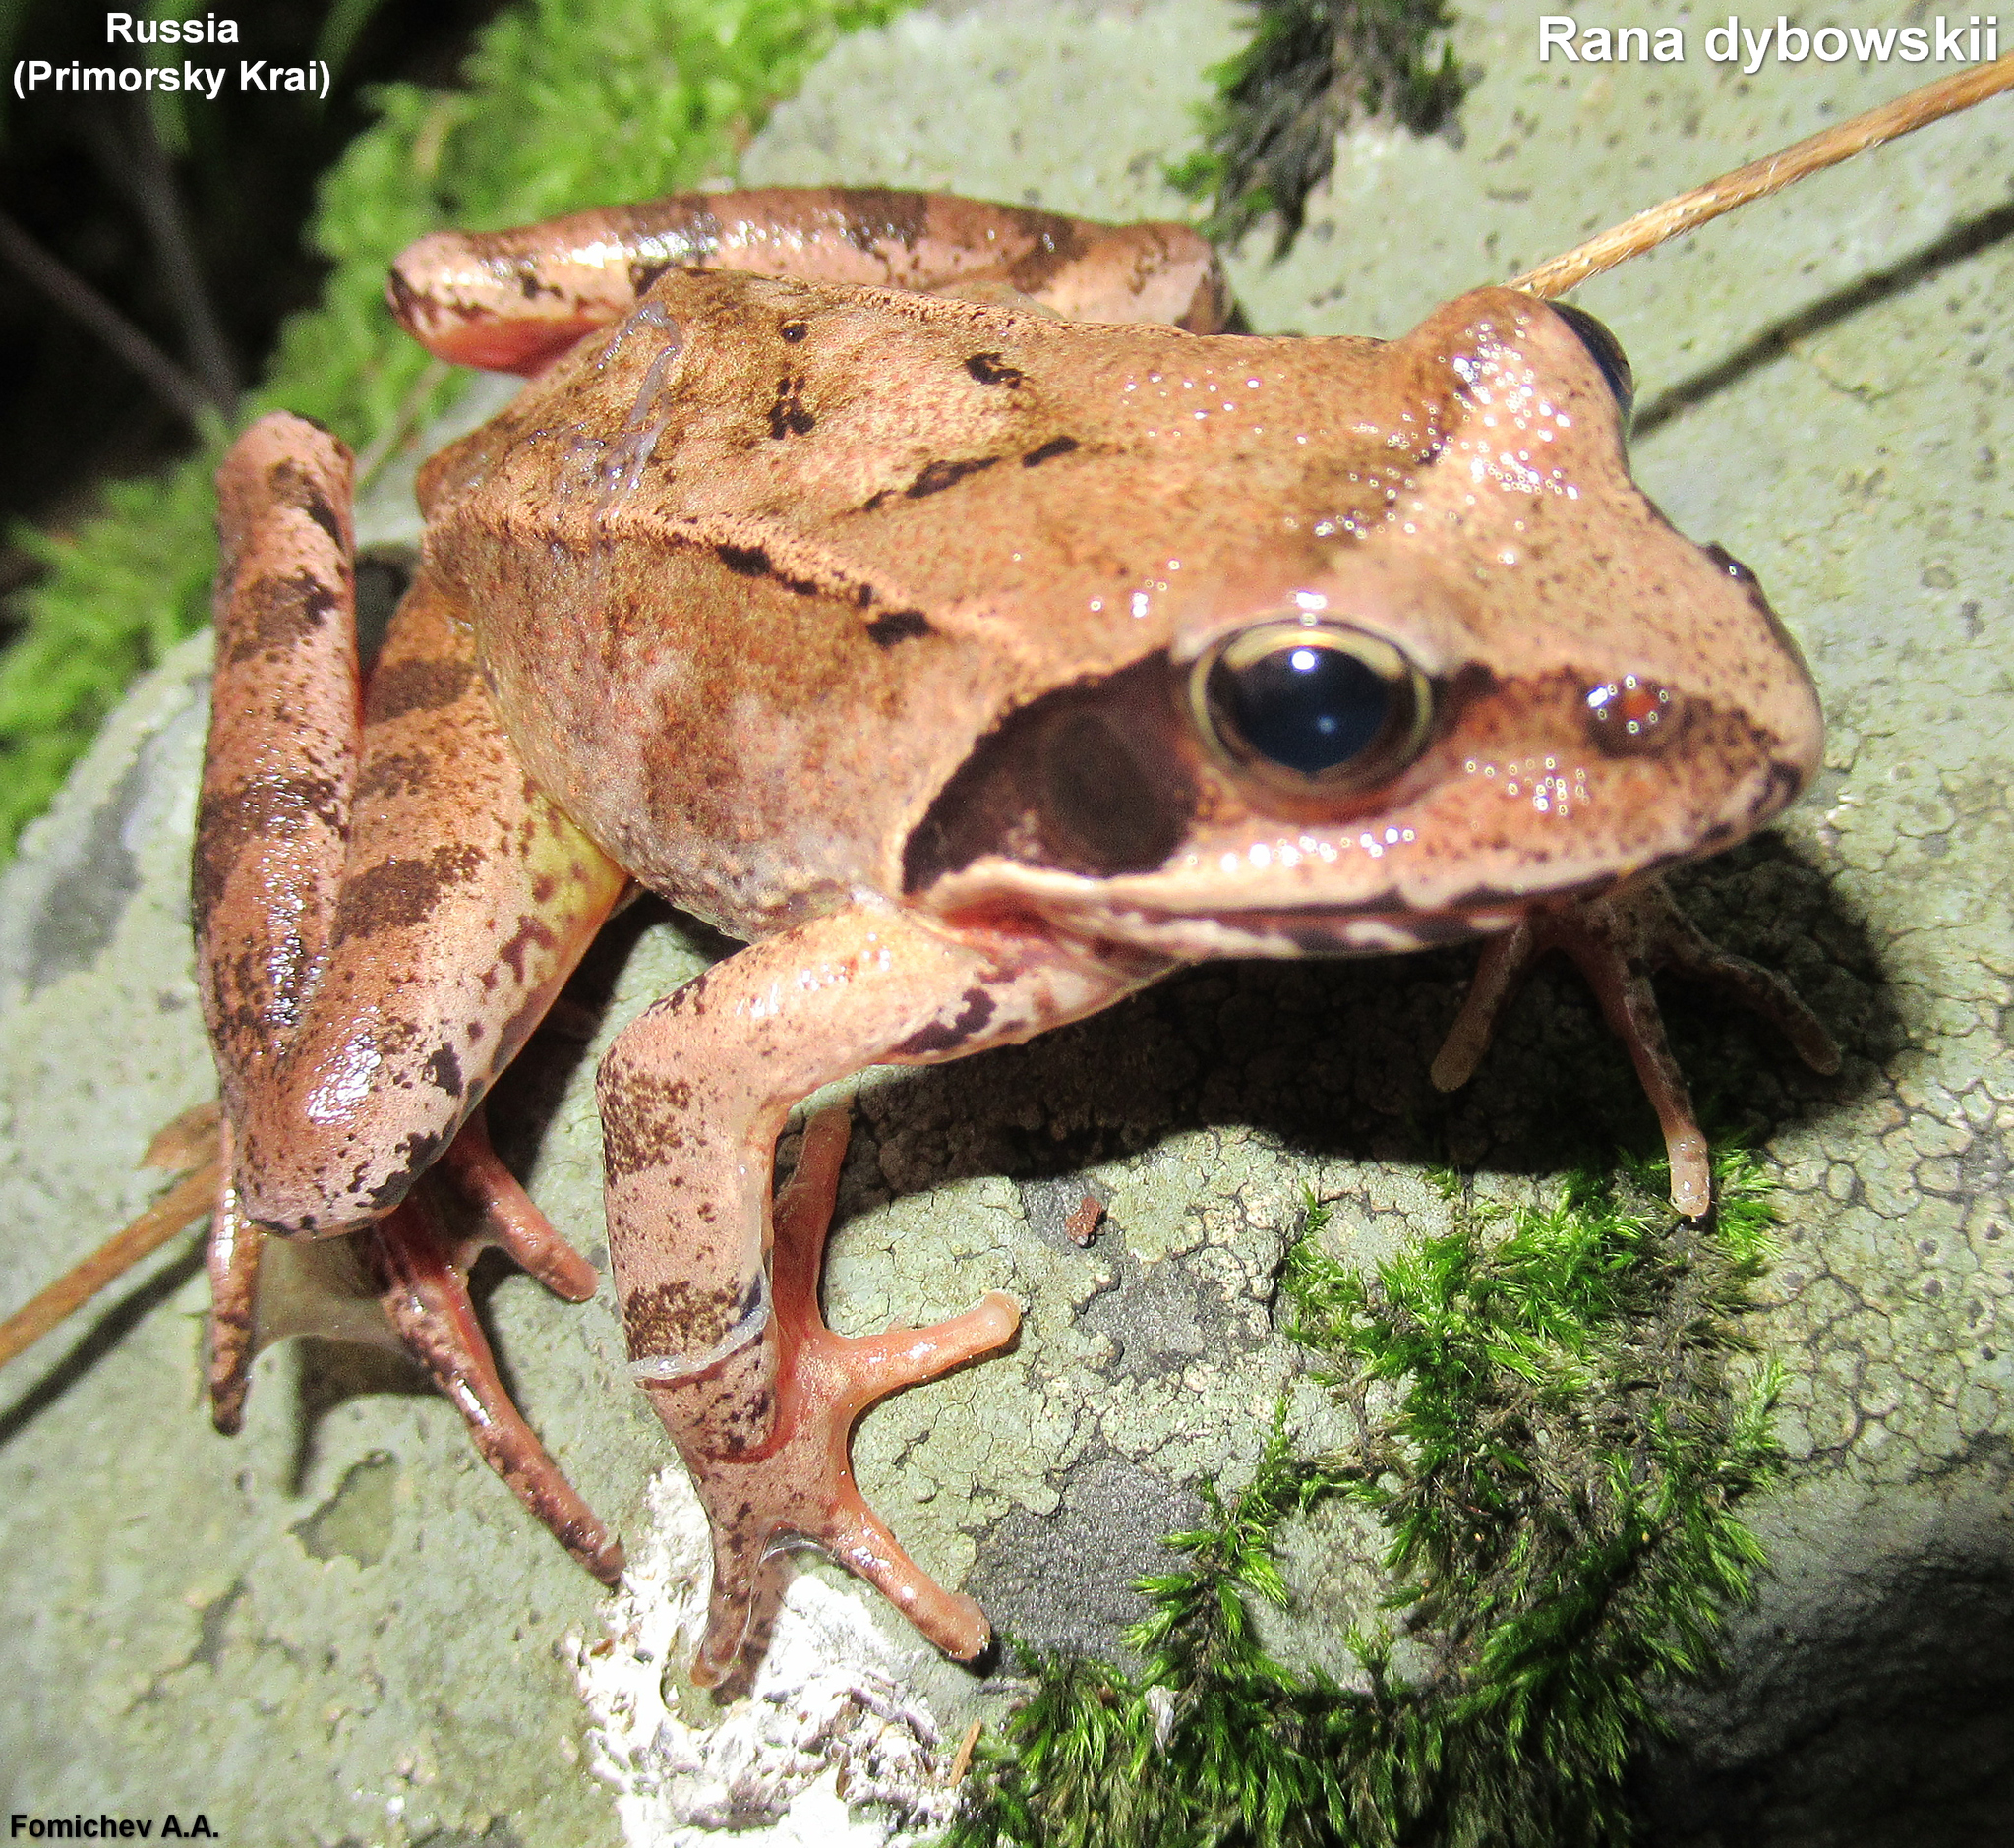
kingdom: Animalia
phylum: Chordata
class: Amphibia
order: Anura
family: Ranidae
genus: Rana
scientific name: Rana dybowskii
